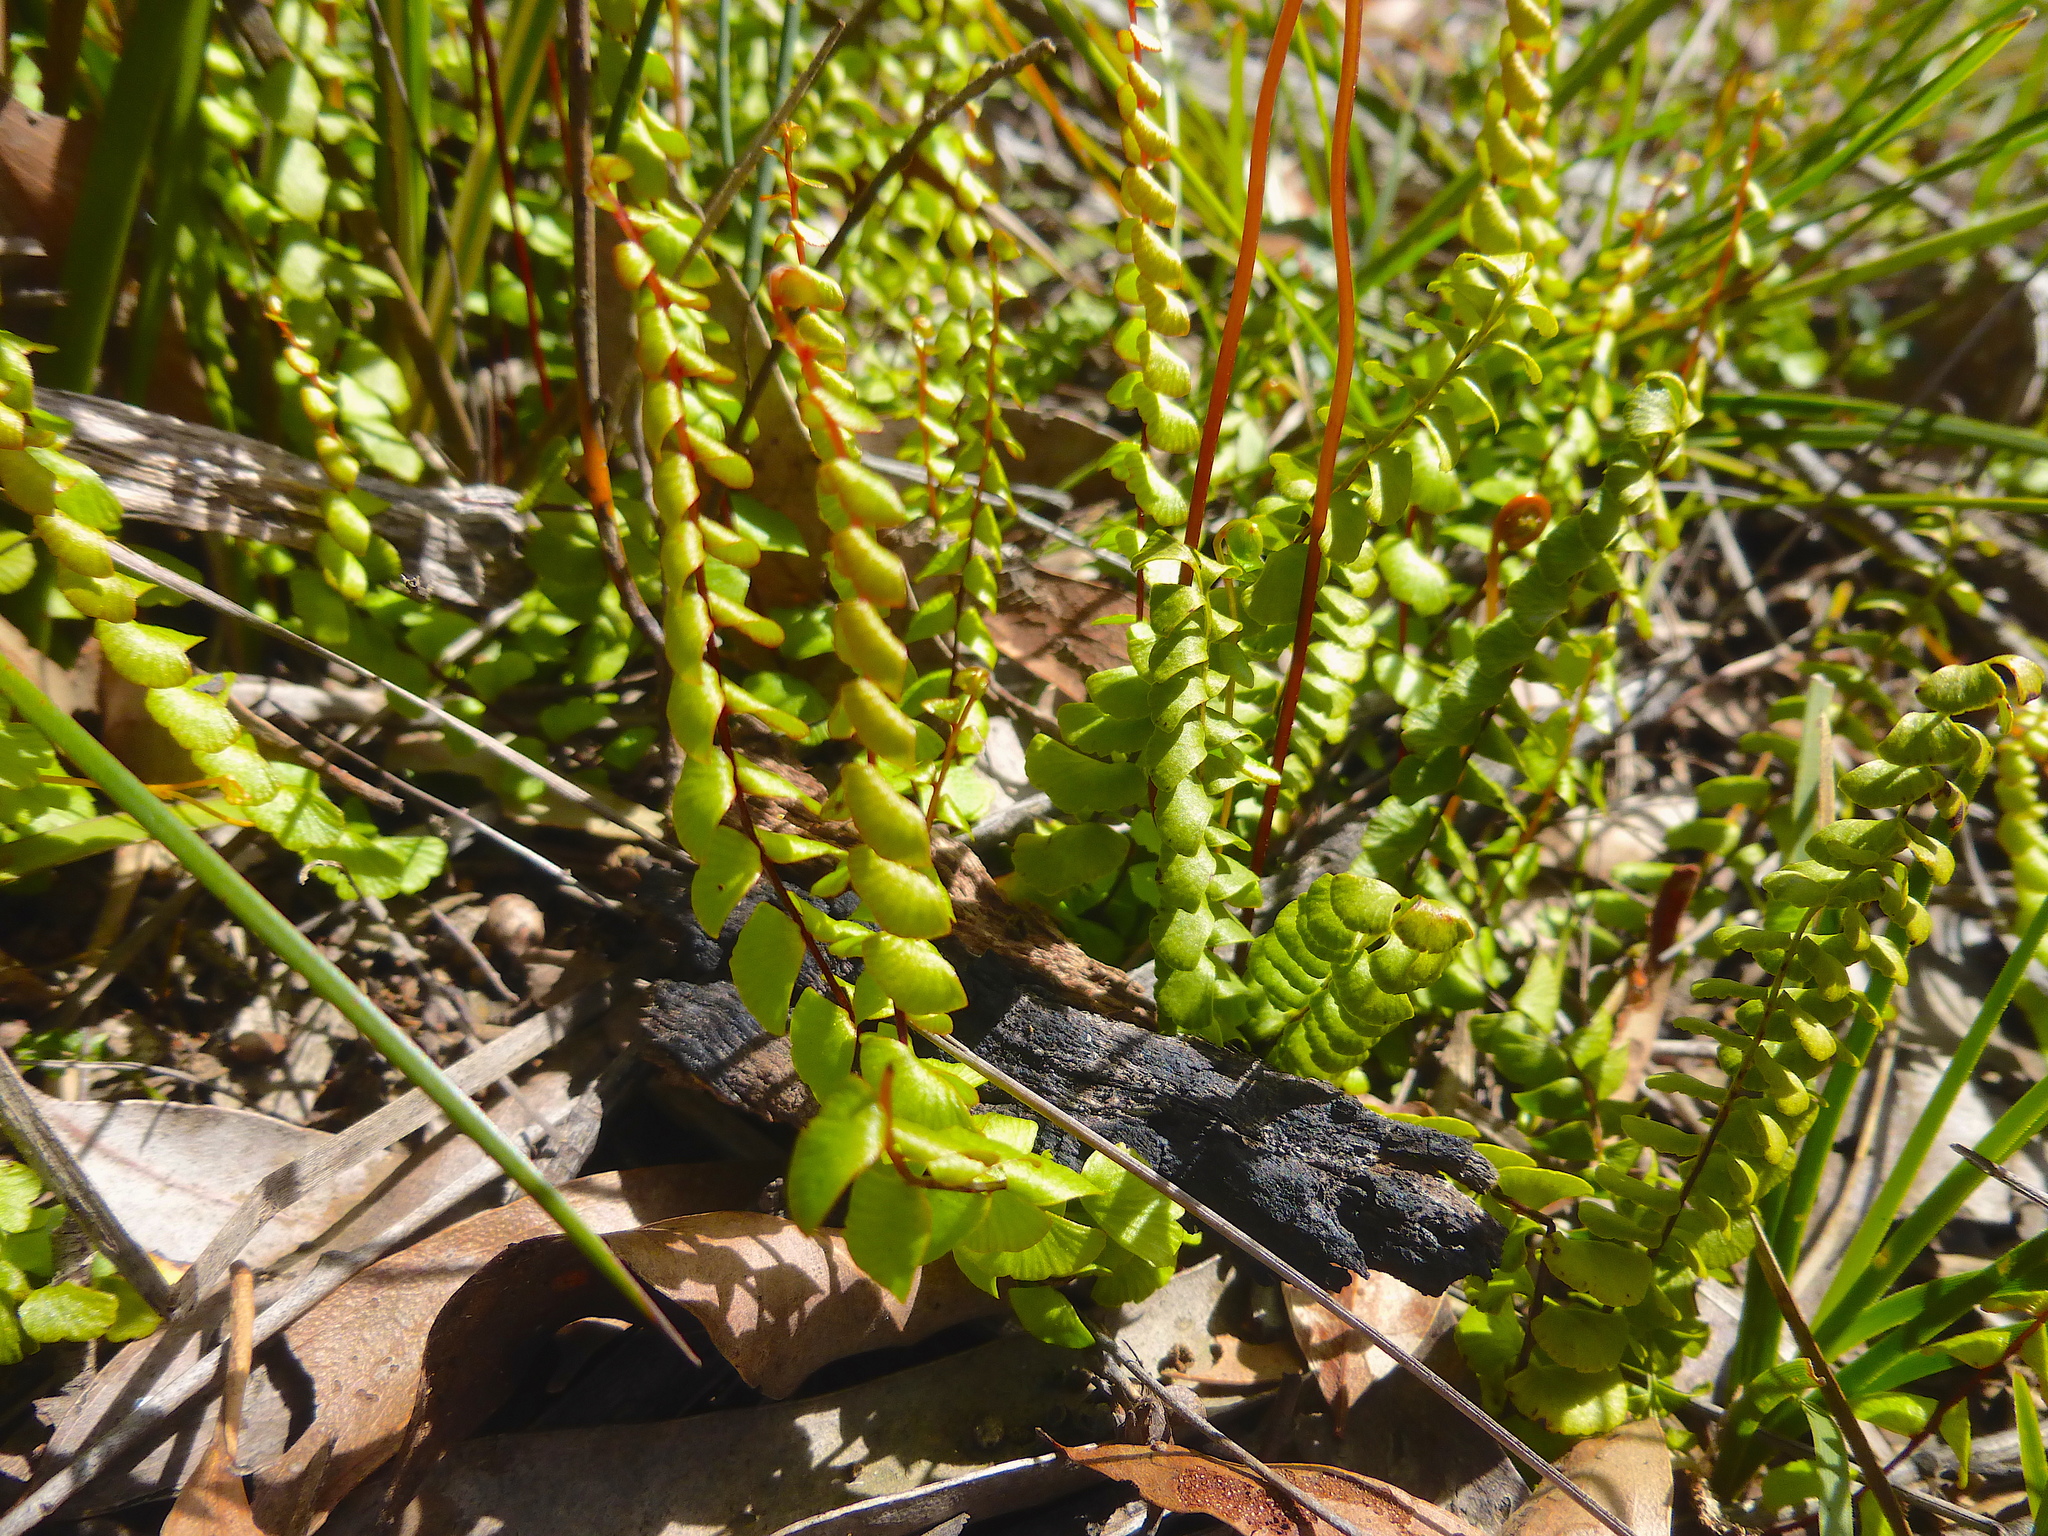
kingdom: Plantae
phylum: Tracheophyta
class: Polypodiopsida
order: Polypodiales
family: Lindsaeaceae
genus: Lindsaea
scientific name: Lindsaea linearis
